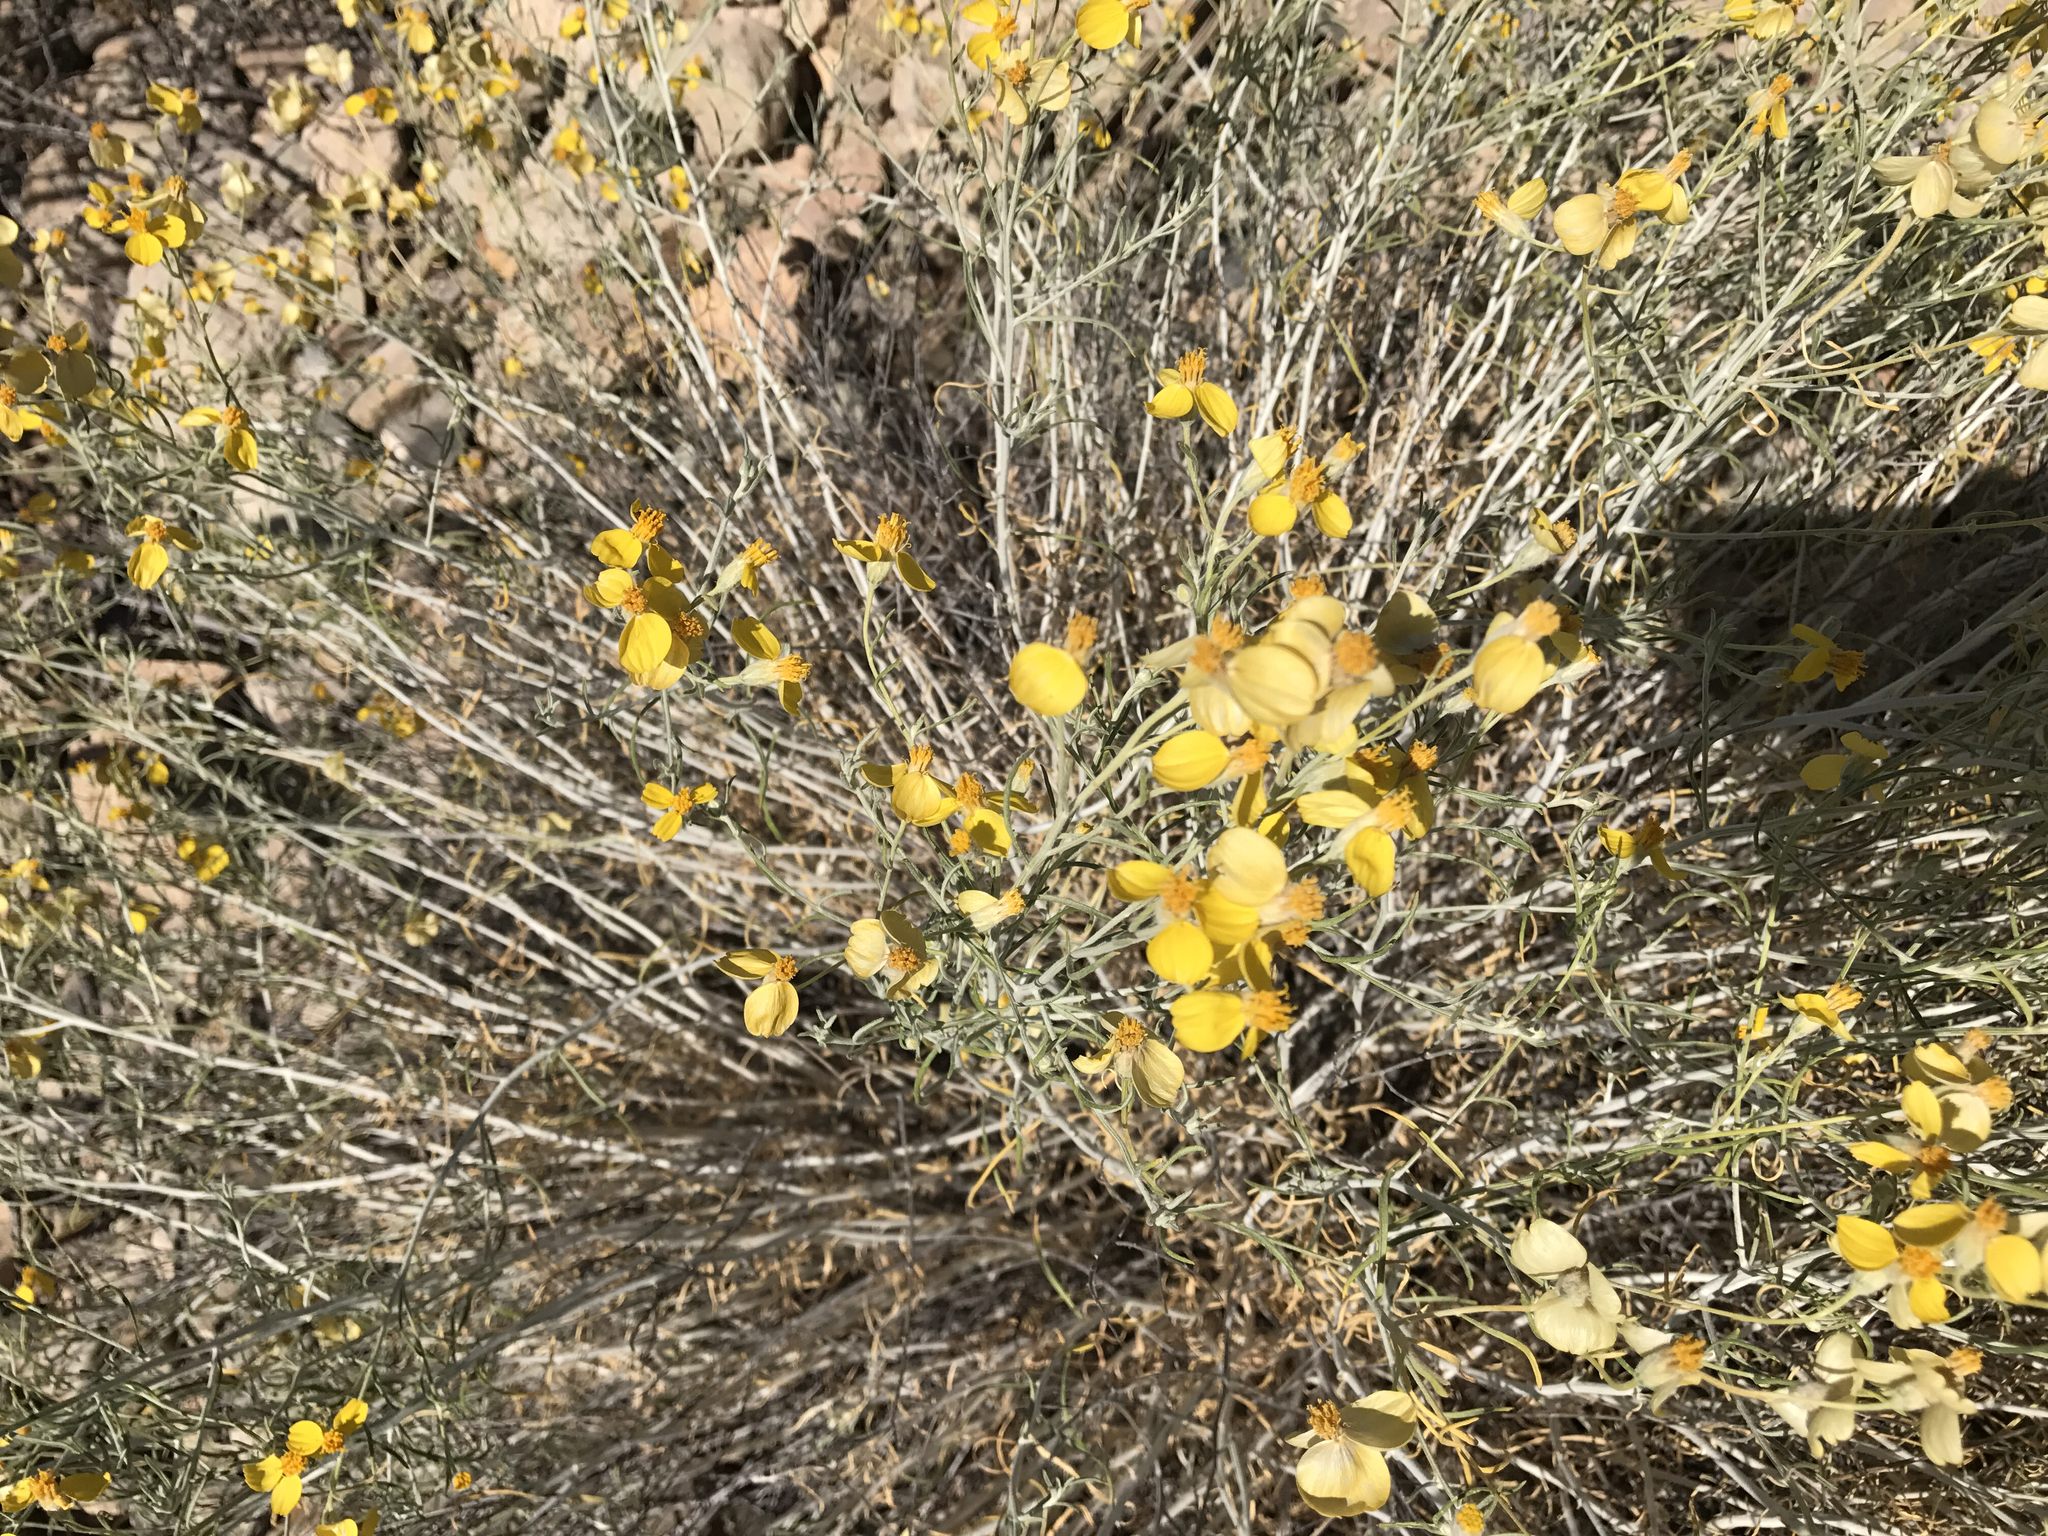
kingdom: Plantae
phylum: Tracheophyta
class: Magnoliopsida
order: Asterales
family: Asteraceae
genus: Psilostrophe
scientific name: Psilostrophe cooperi
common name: White-stem paper-flower
